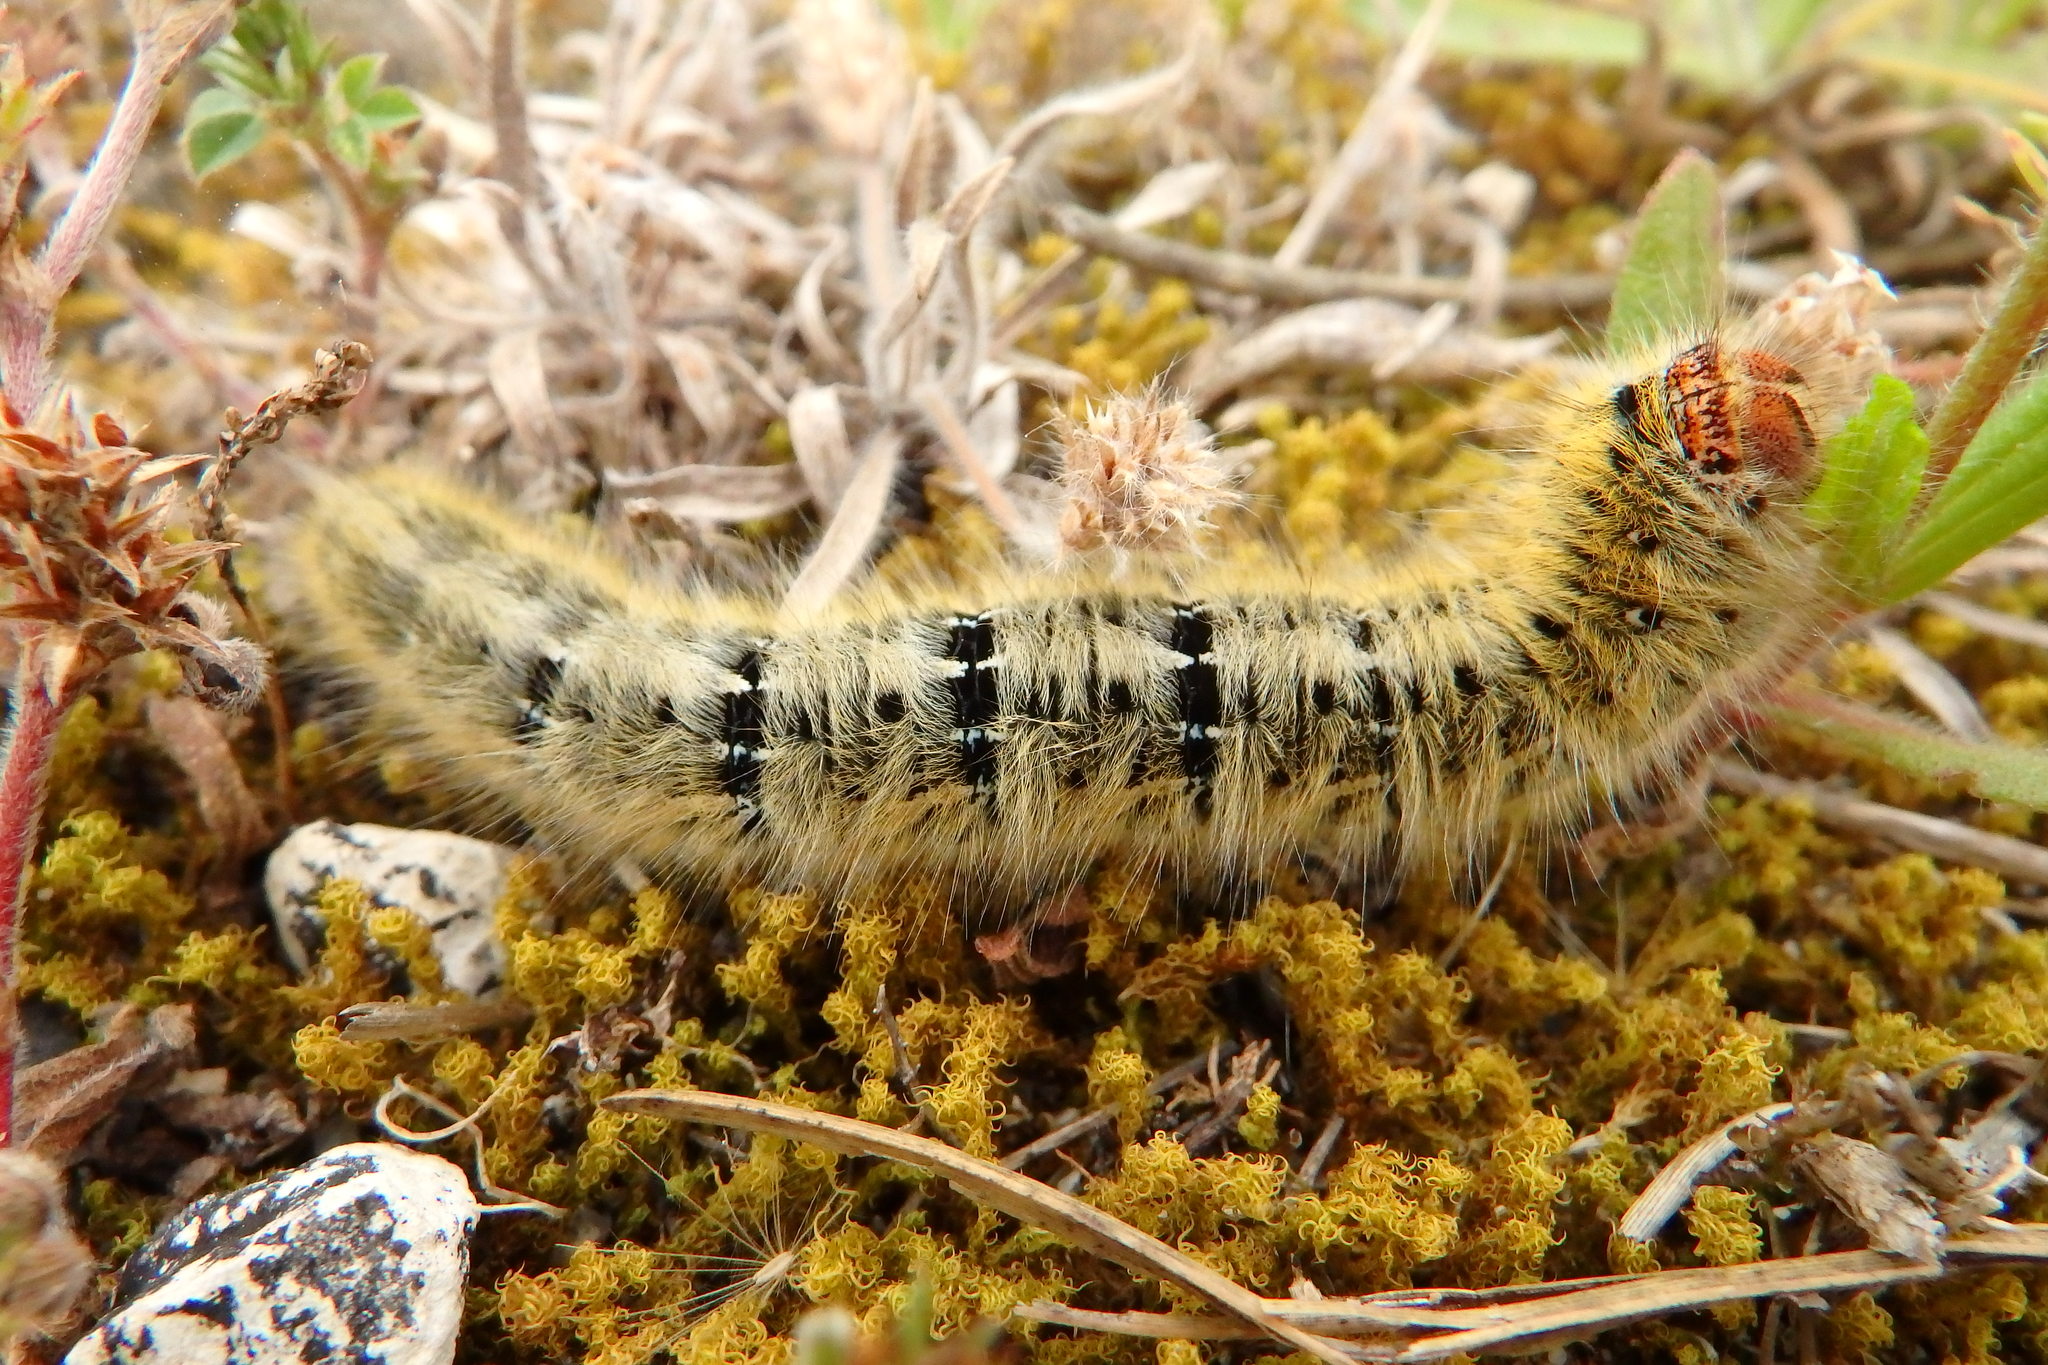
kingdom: Animalia
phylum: Arthropoda
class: Insecta
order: Lepidoptera
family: Lasiocampidae
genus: Lasiocampa
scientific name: Lasiocampa trifolii
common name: Grass eggar
